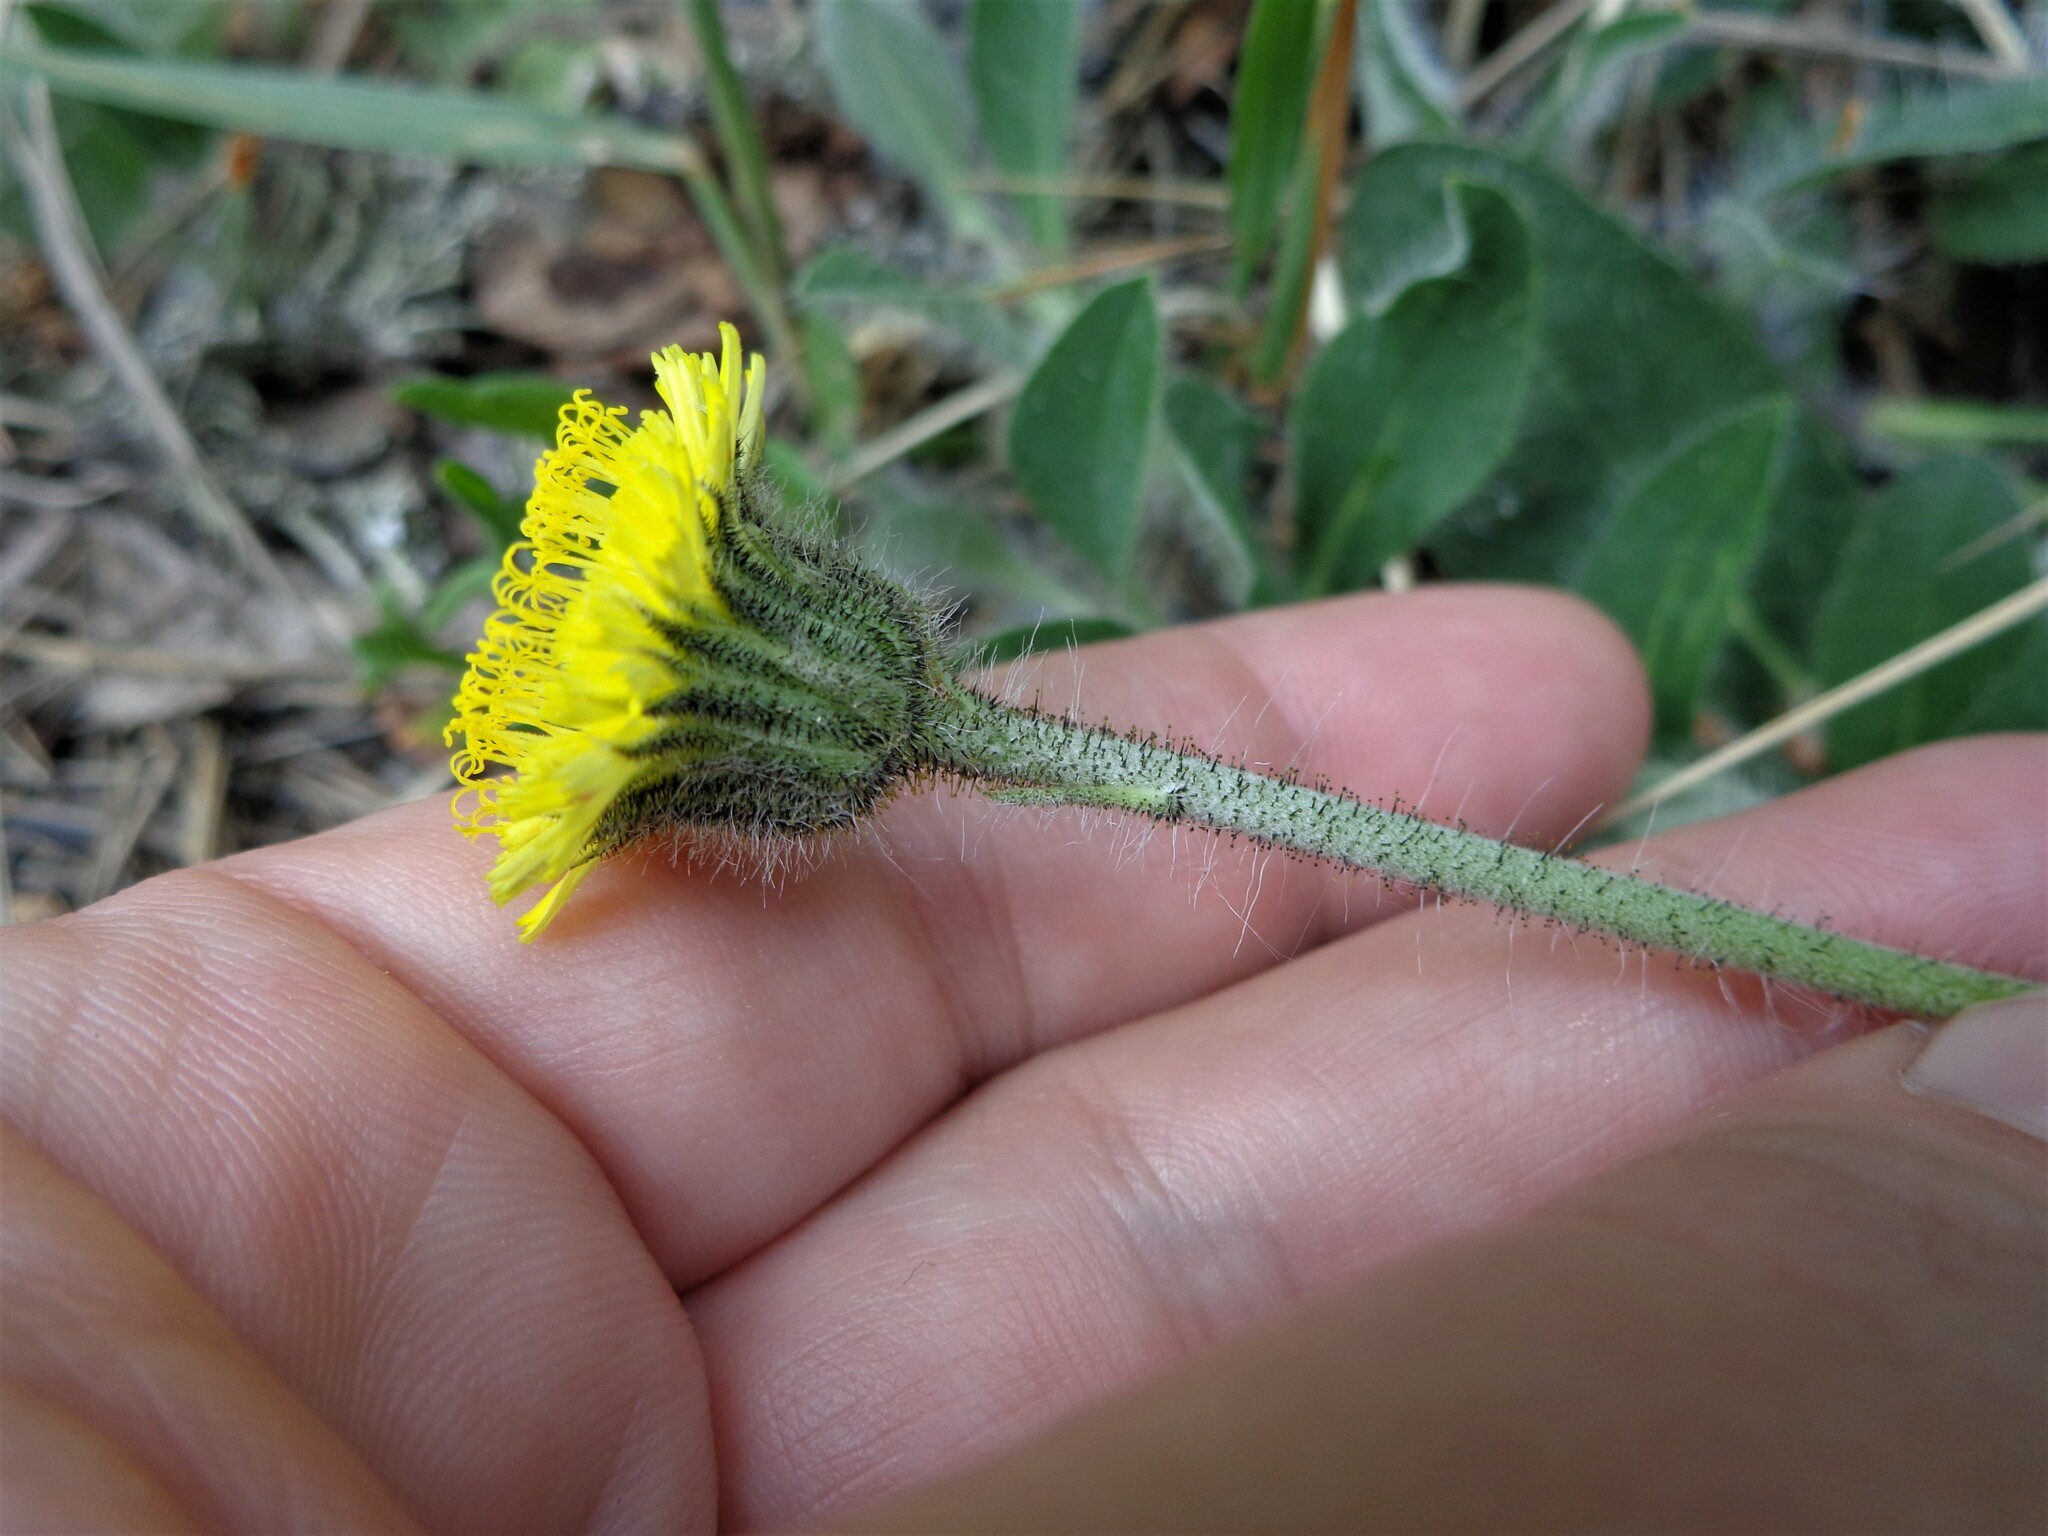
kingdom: Plantae
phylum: Tracheophyta
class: Magnoliopsida
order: Asterales
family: Asteraceae
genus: Pilosella
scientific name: Pilosella officinarum
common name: Mouse-ear hawkweed
